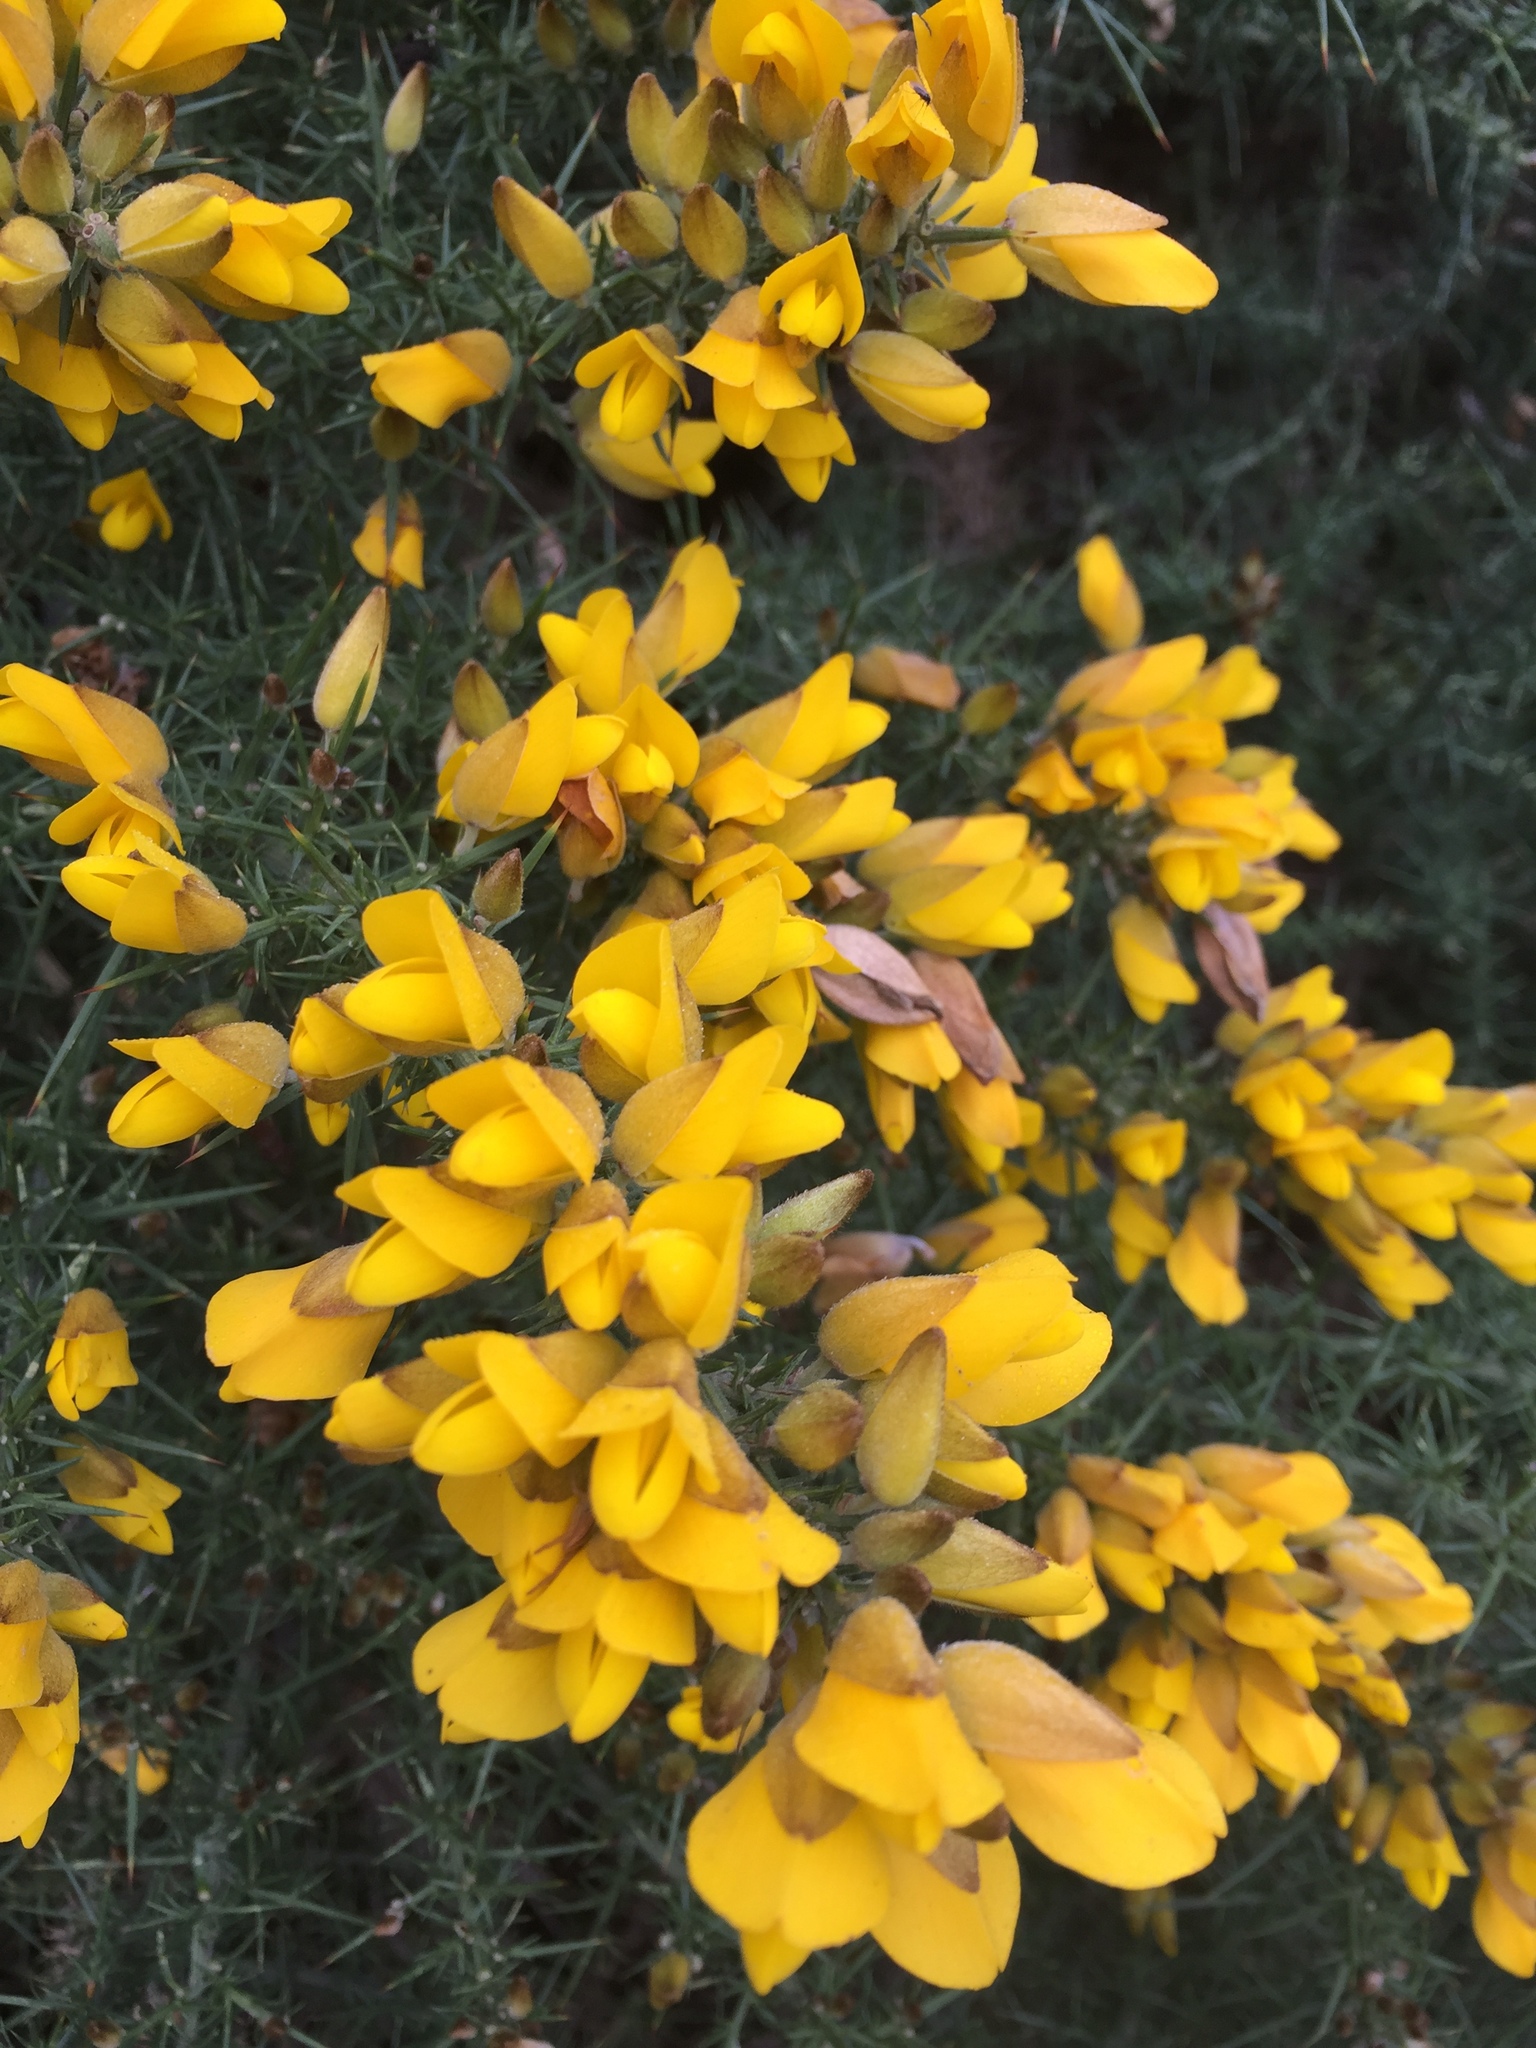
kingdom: Plantae
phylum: Tracheophyta
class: Magnoliopsida
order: Fabales
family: Fabaceae
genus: Ulex
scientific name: Ulex europaeus
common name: Common gorse
